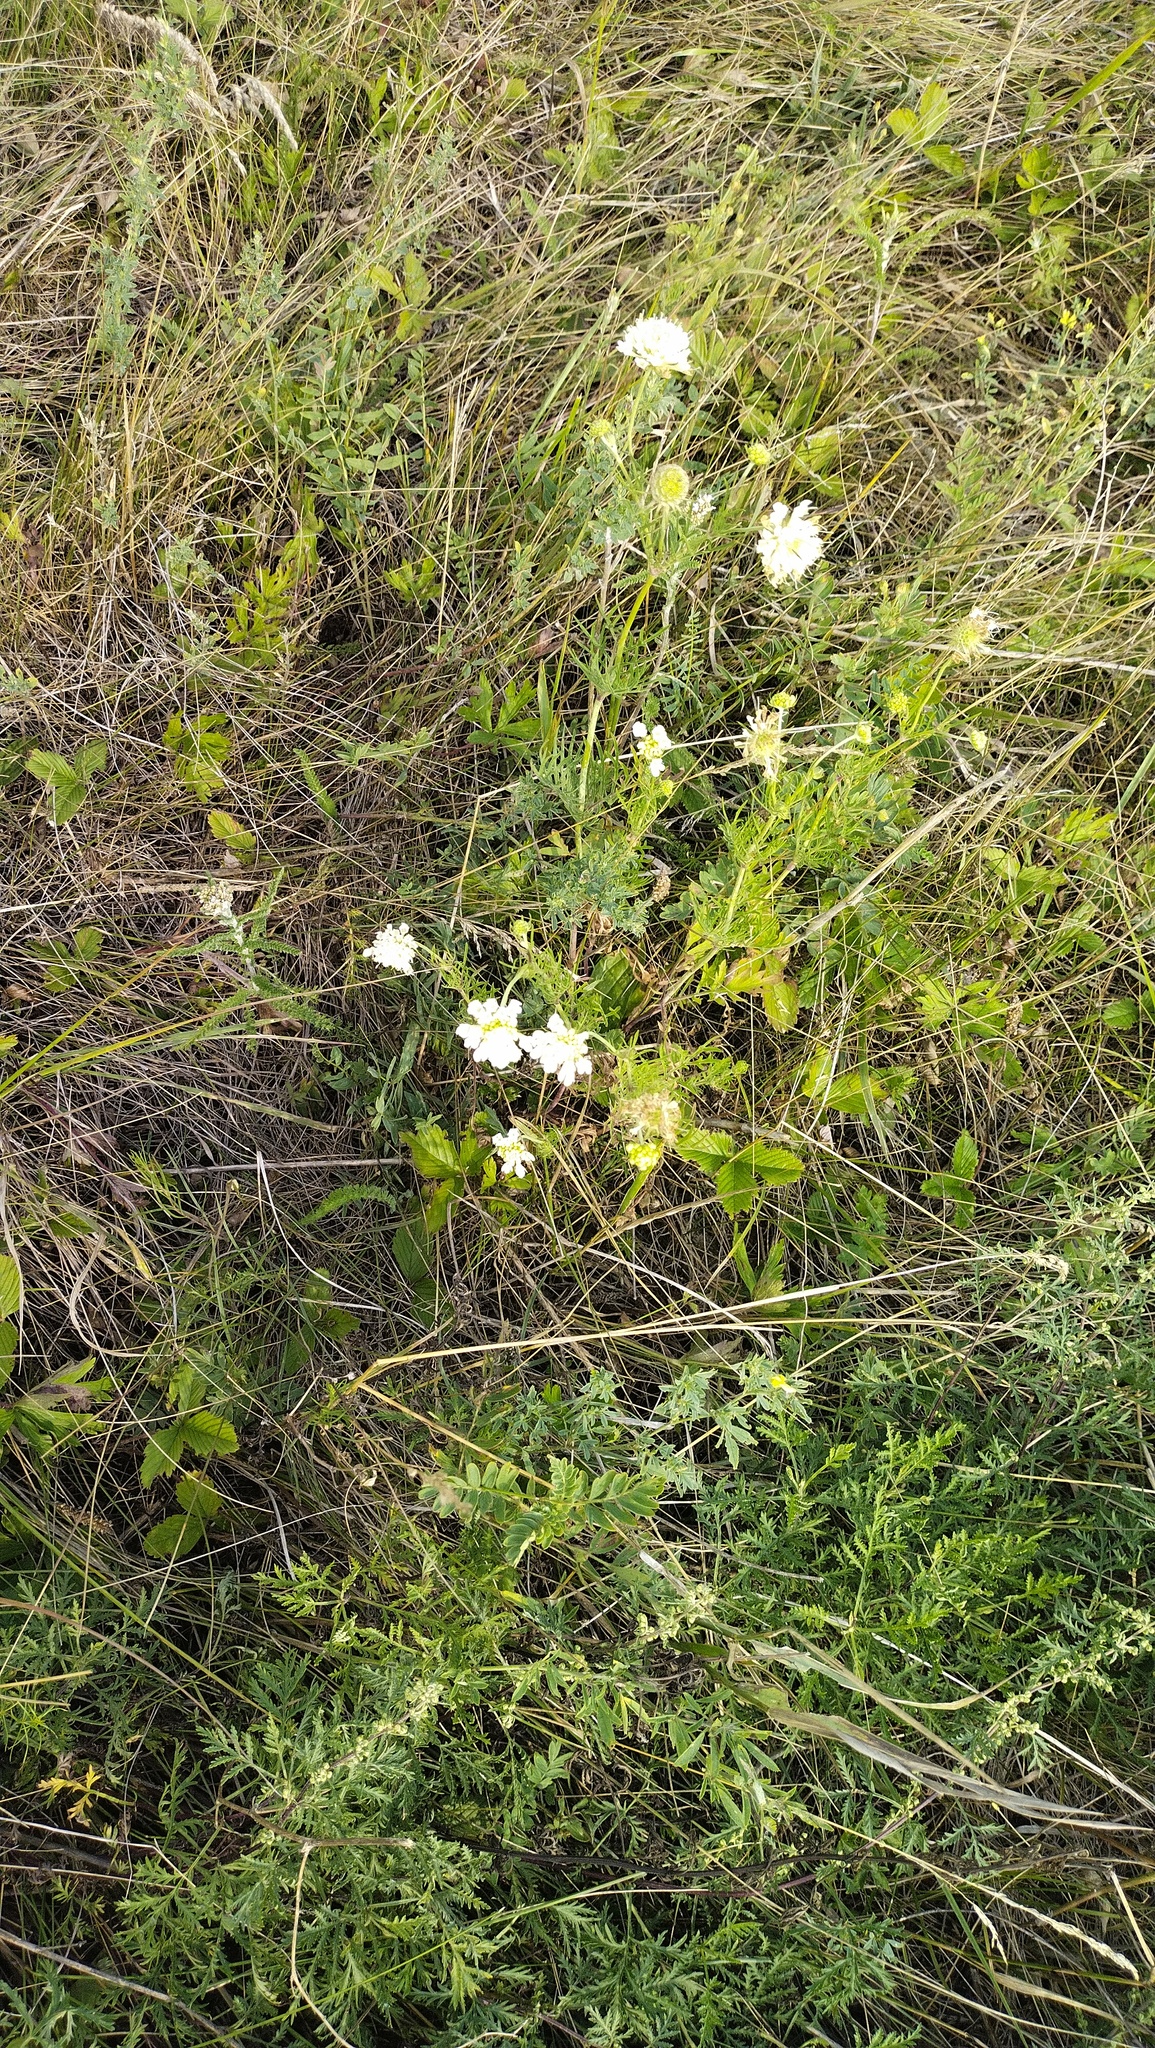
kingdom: Plantae
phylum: Tracheophyta
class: Magnoliopsida
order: Dipsacales
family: Caprifoliaceae
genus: Scabiosa
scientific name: Scabiosa ochroleuca
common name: Cream pincushions
